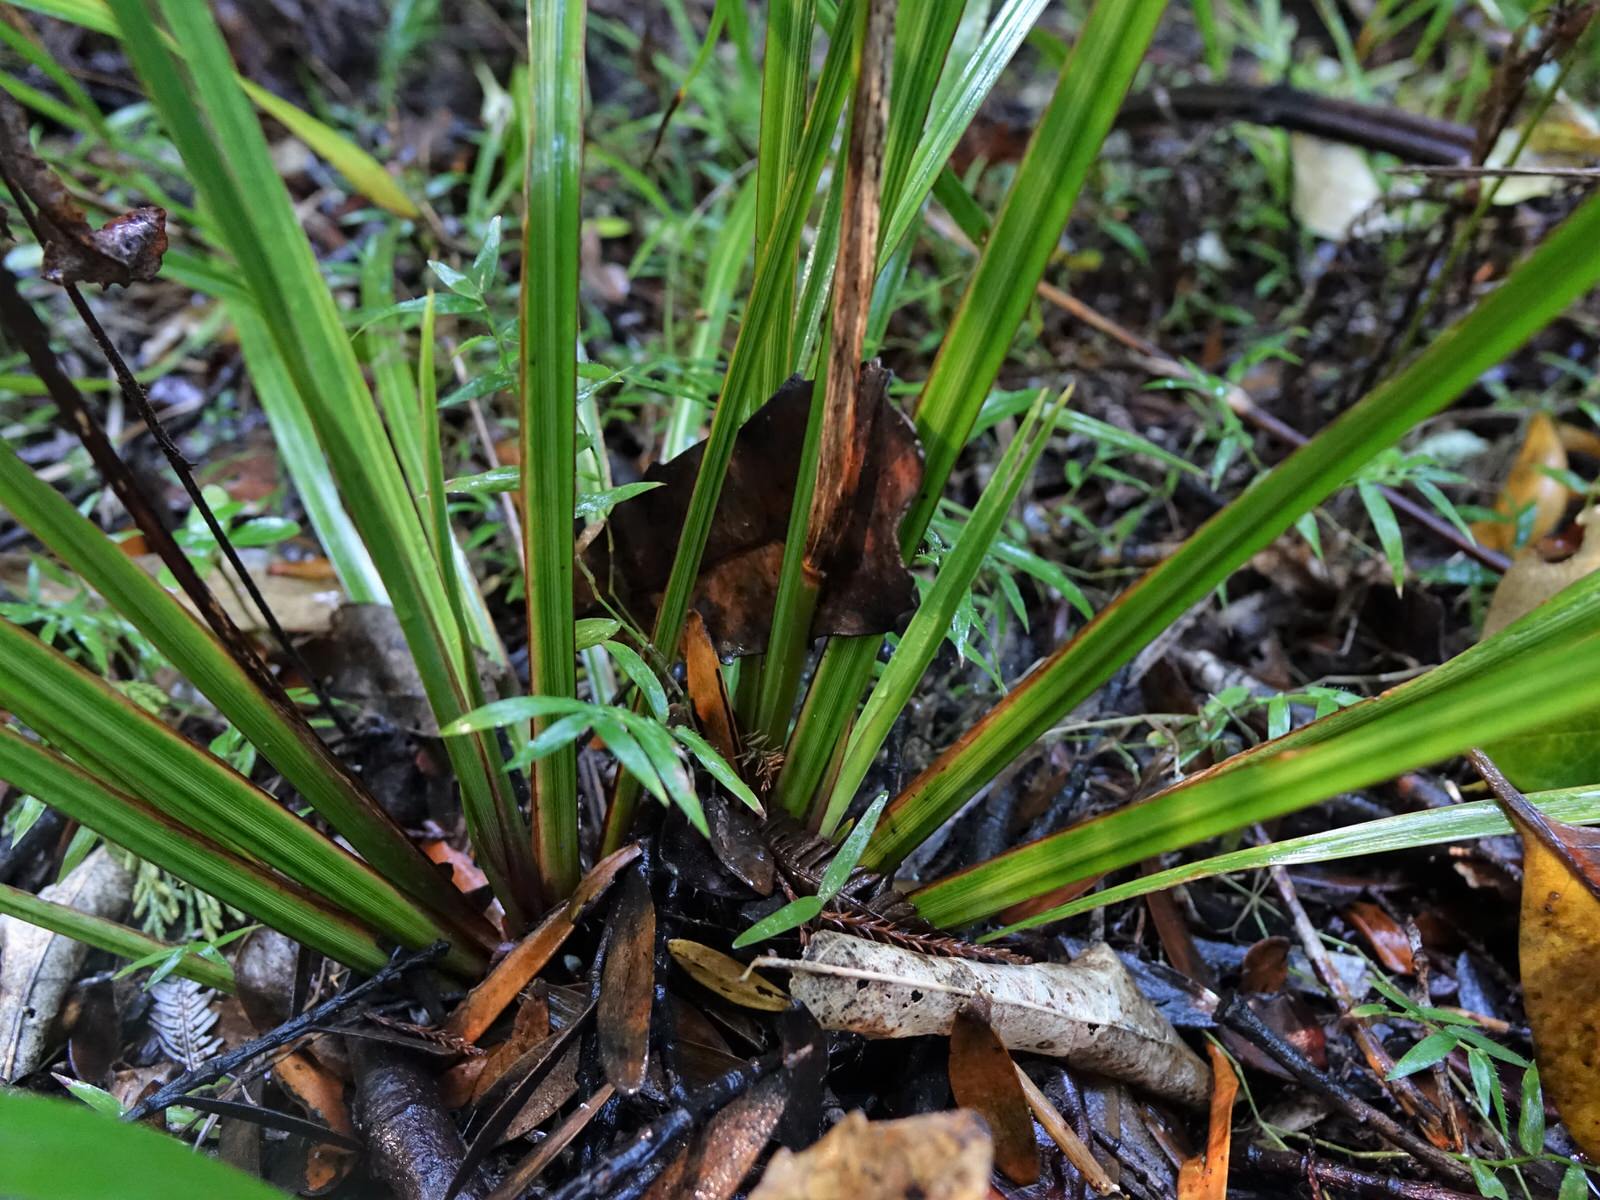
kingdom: Plantae
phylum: Tracheophyta
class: Liliopsida
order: Asparagales
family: Iridaceae
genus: Libertia
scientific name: Libertia ixioides
